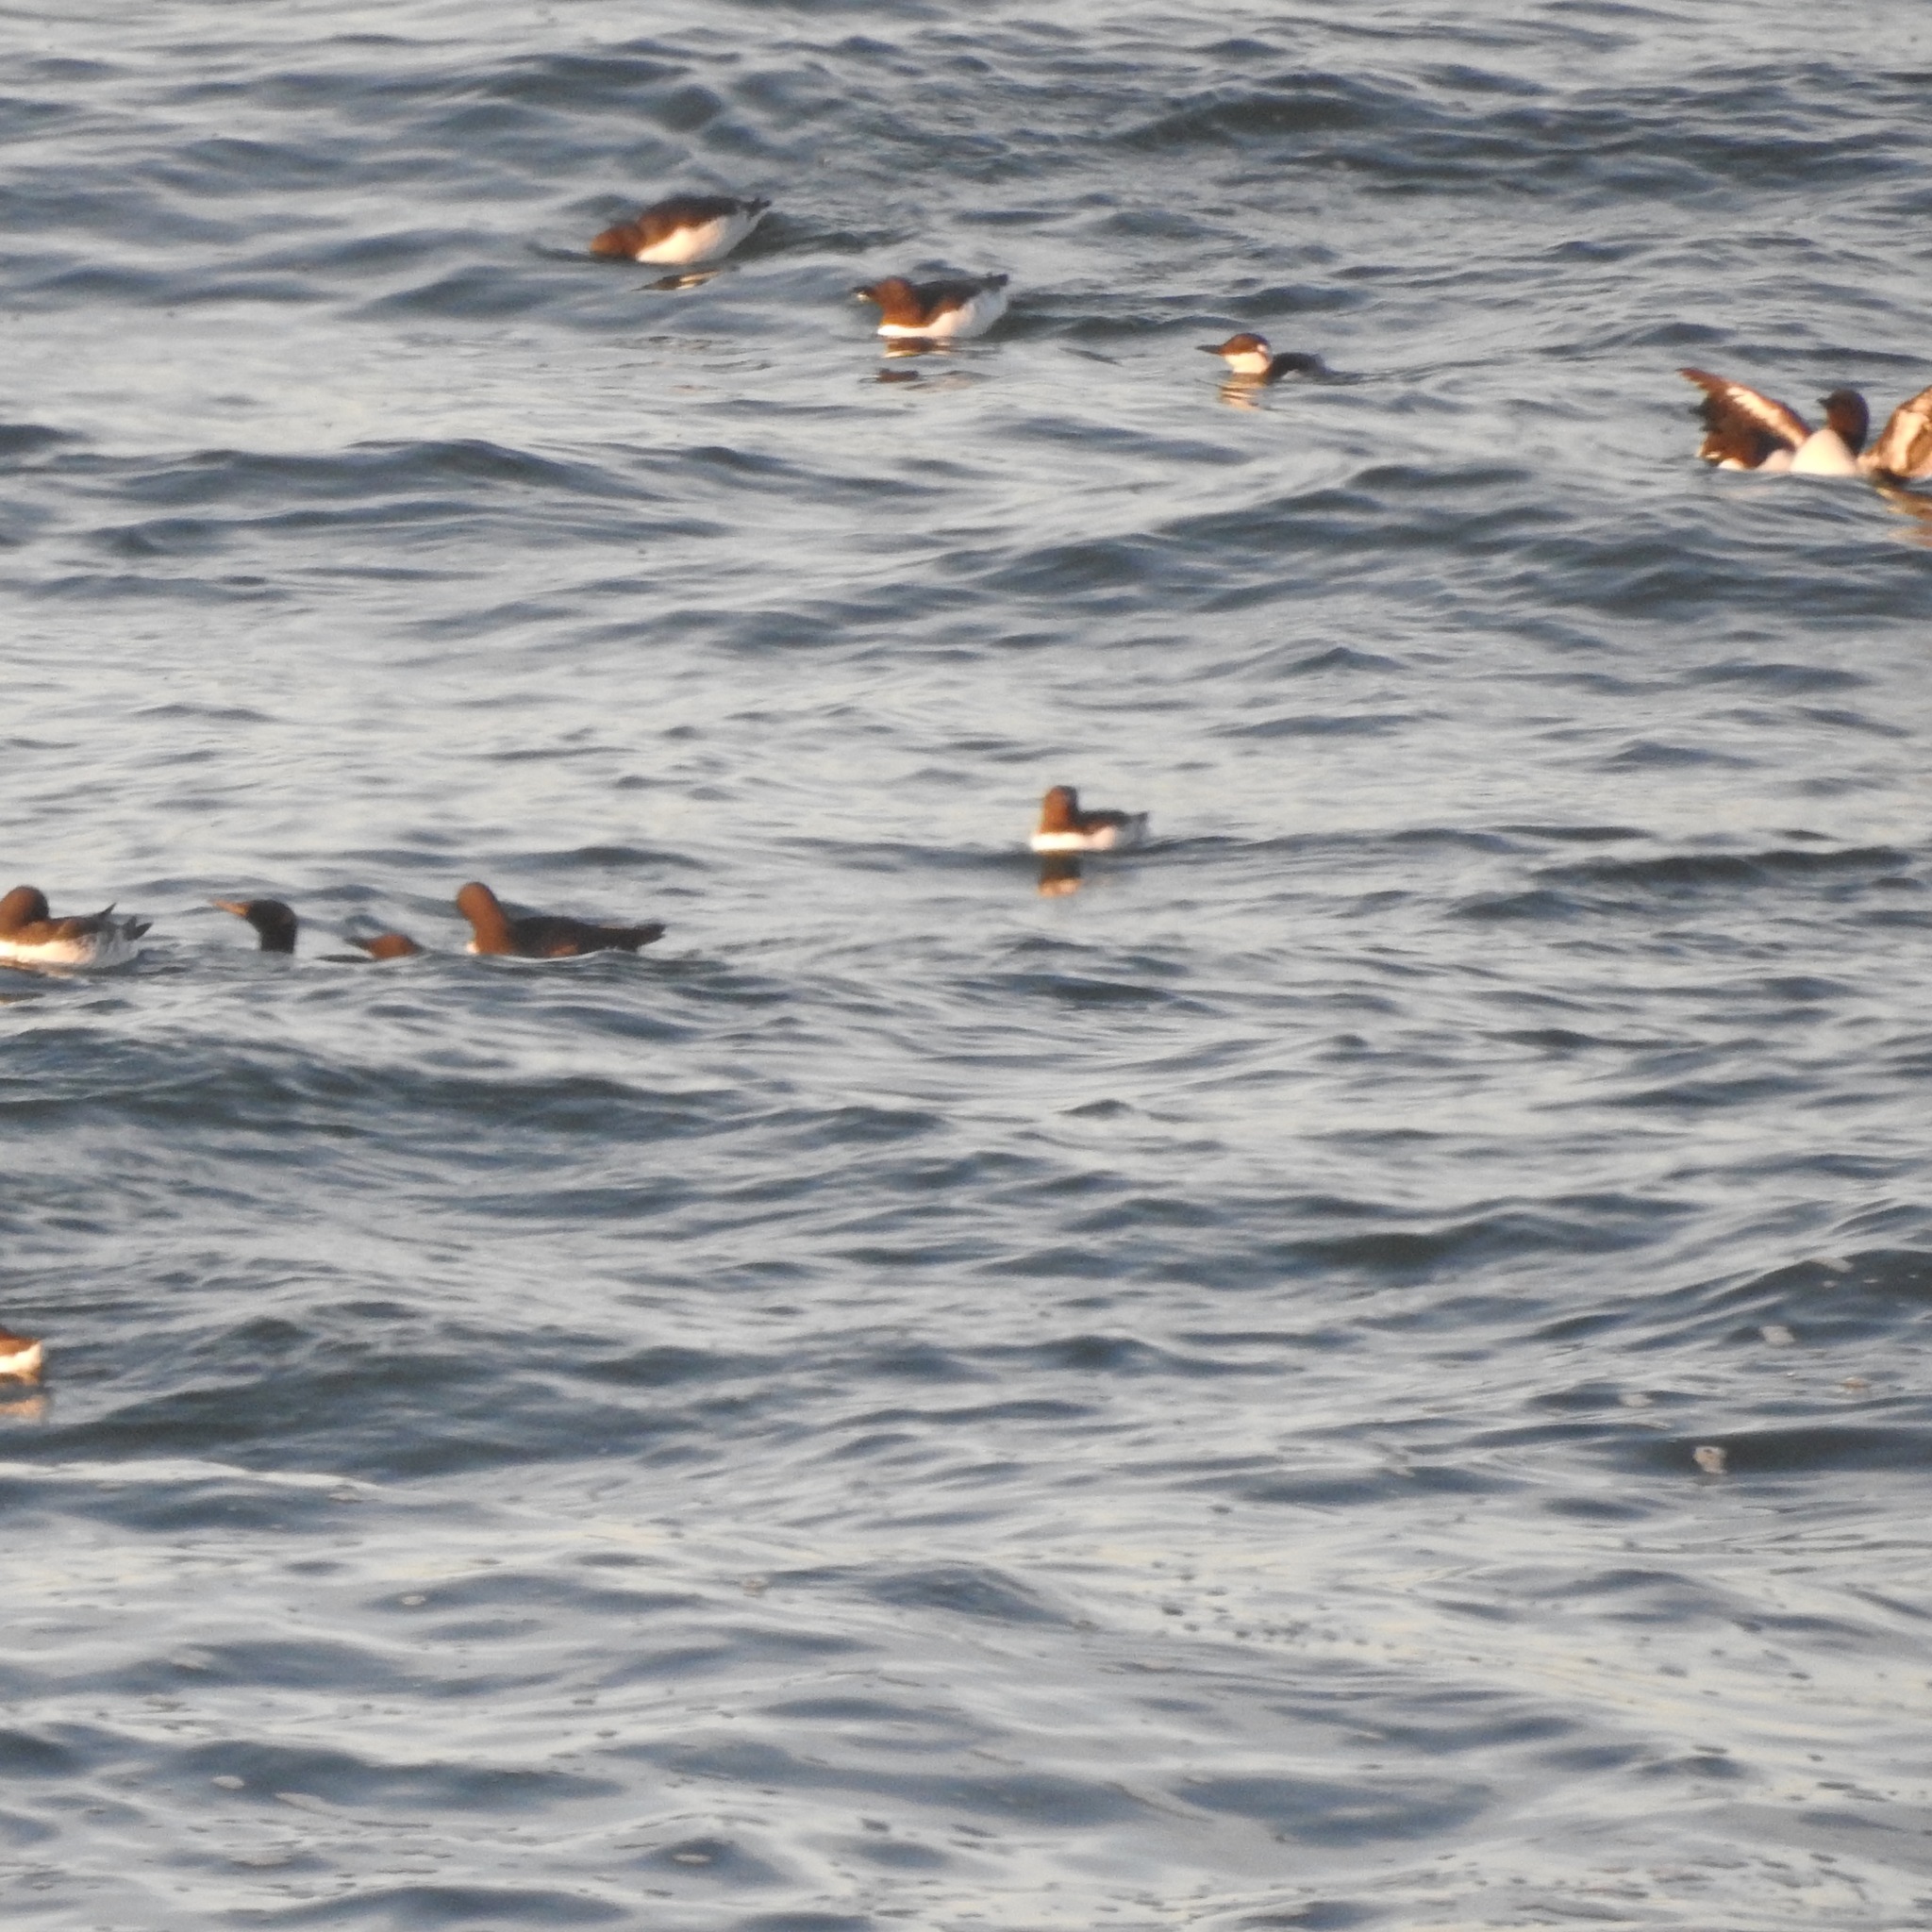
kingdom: Animalia
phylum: Chordata
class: Aves
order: Charadriiformes
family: Alcidae
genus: Uria
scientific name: Uria aalge
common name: Common murre
